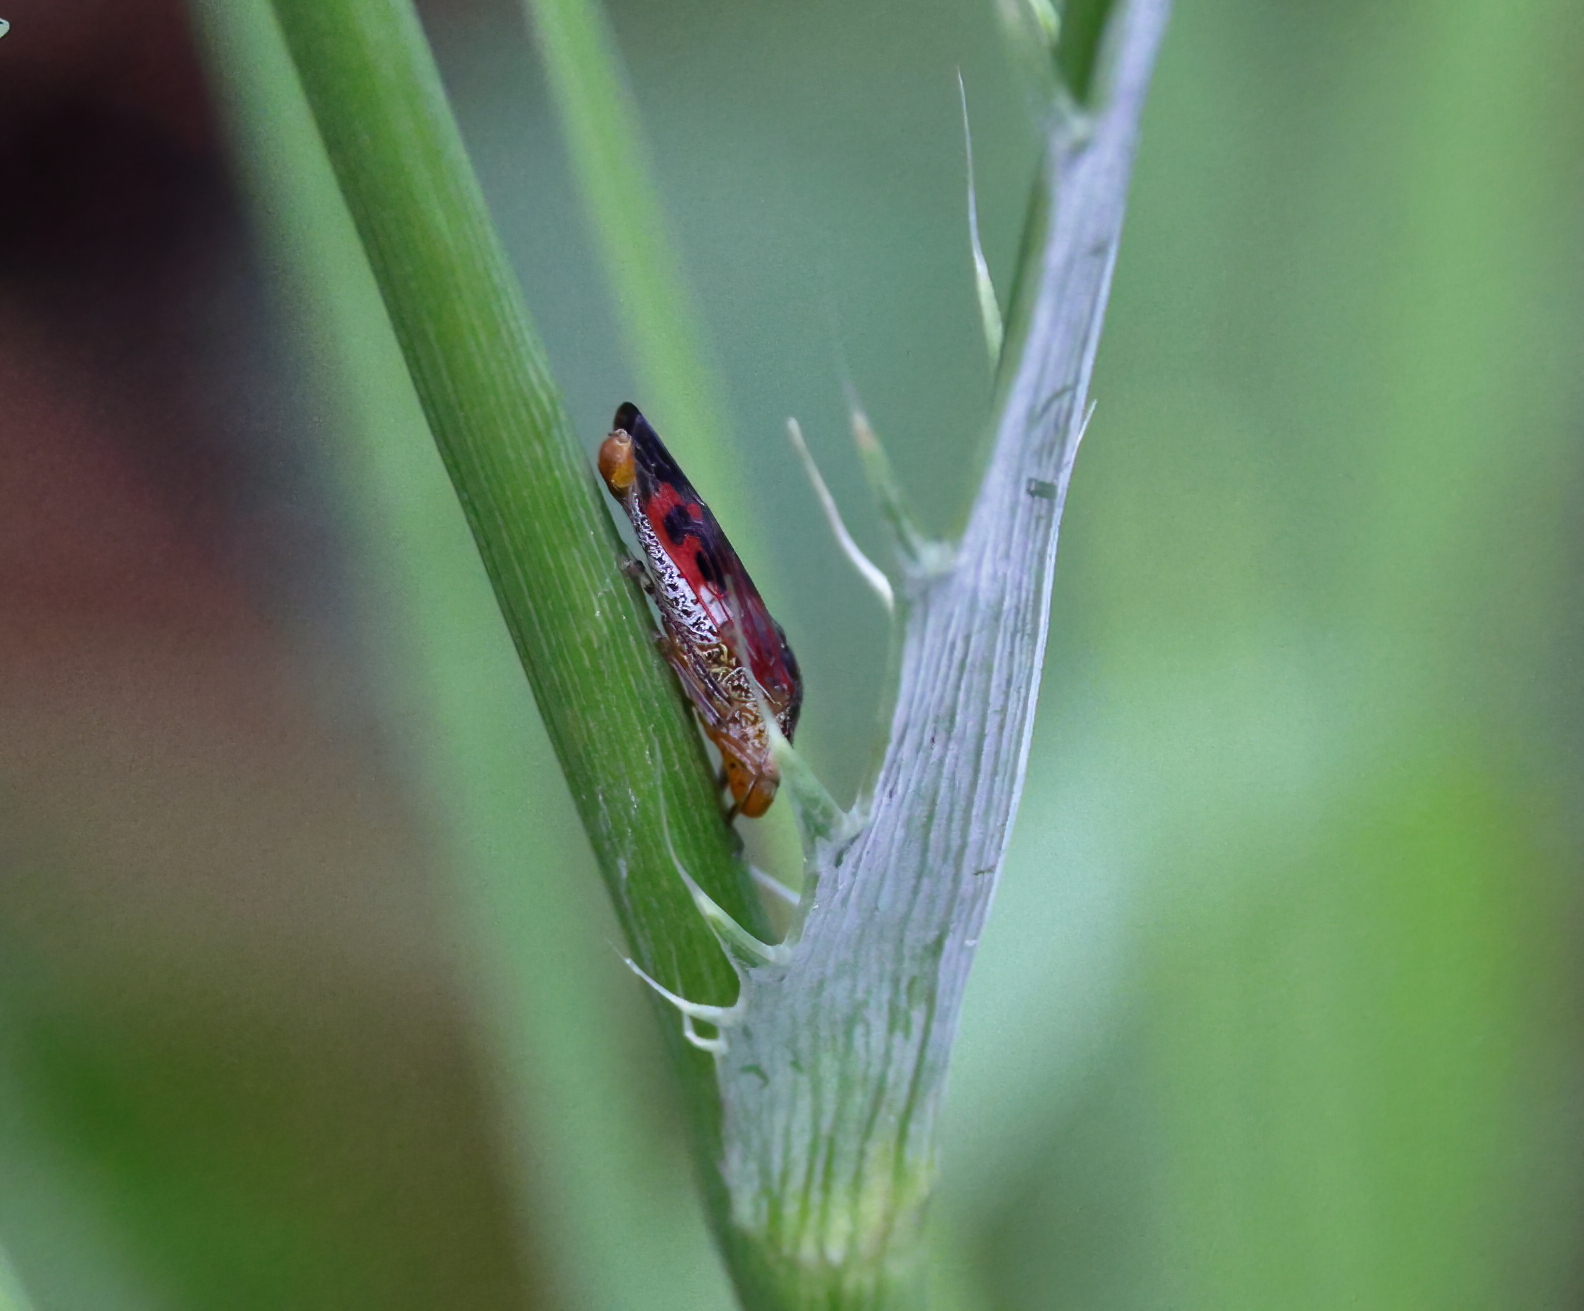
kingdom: Animalia
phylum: Arthropoda
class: Insecta
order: Hemiptera
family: Cicadellidae
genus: Homalodisca
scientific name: Homalodisca vitripennis
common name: Glassy-winged sharpshooter
